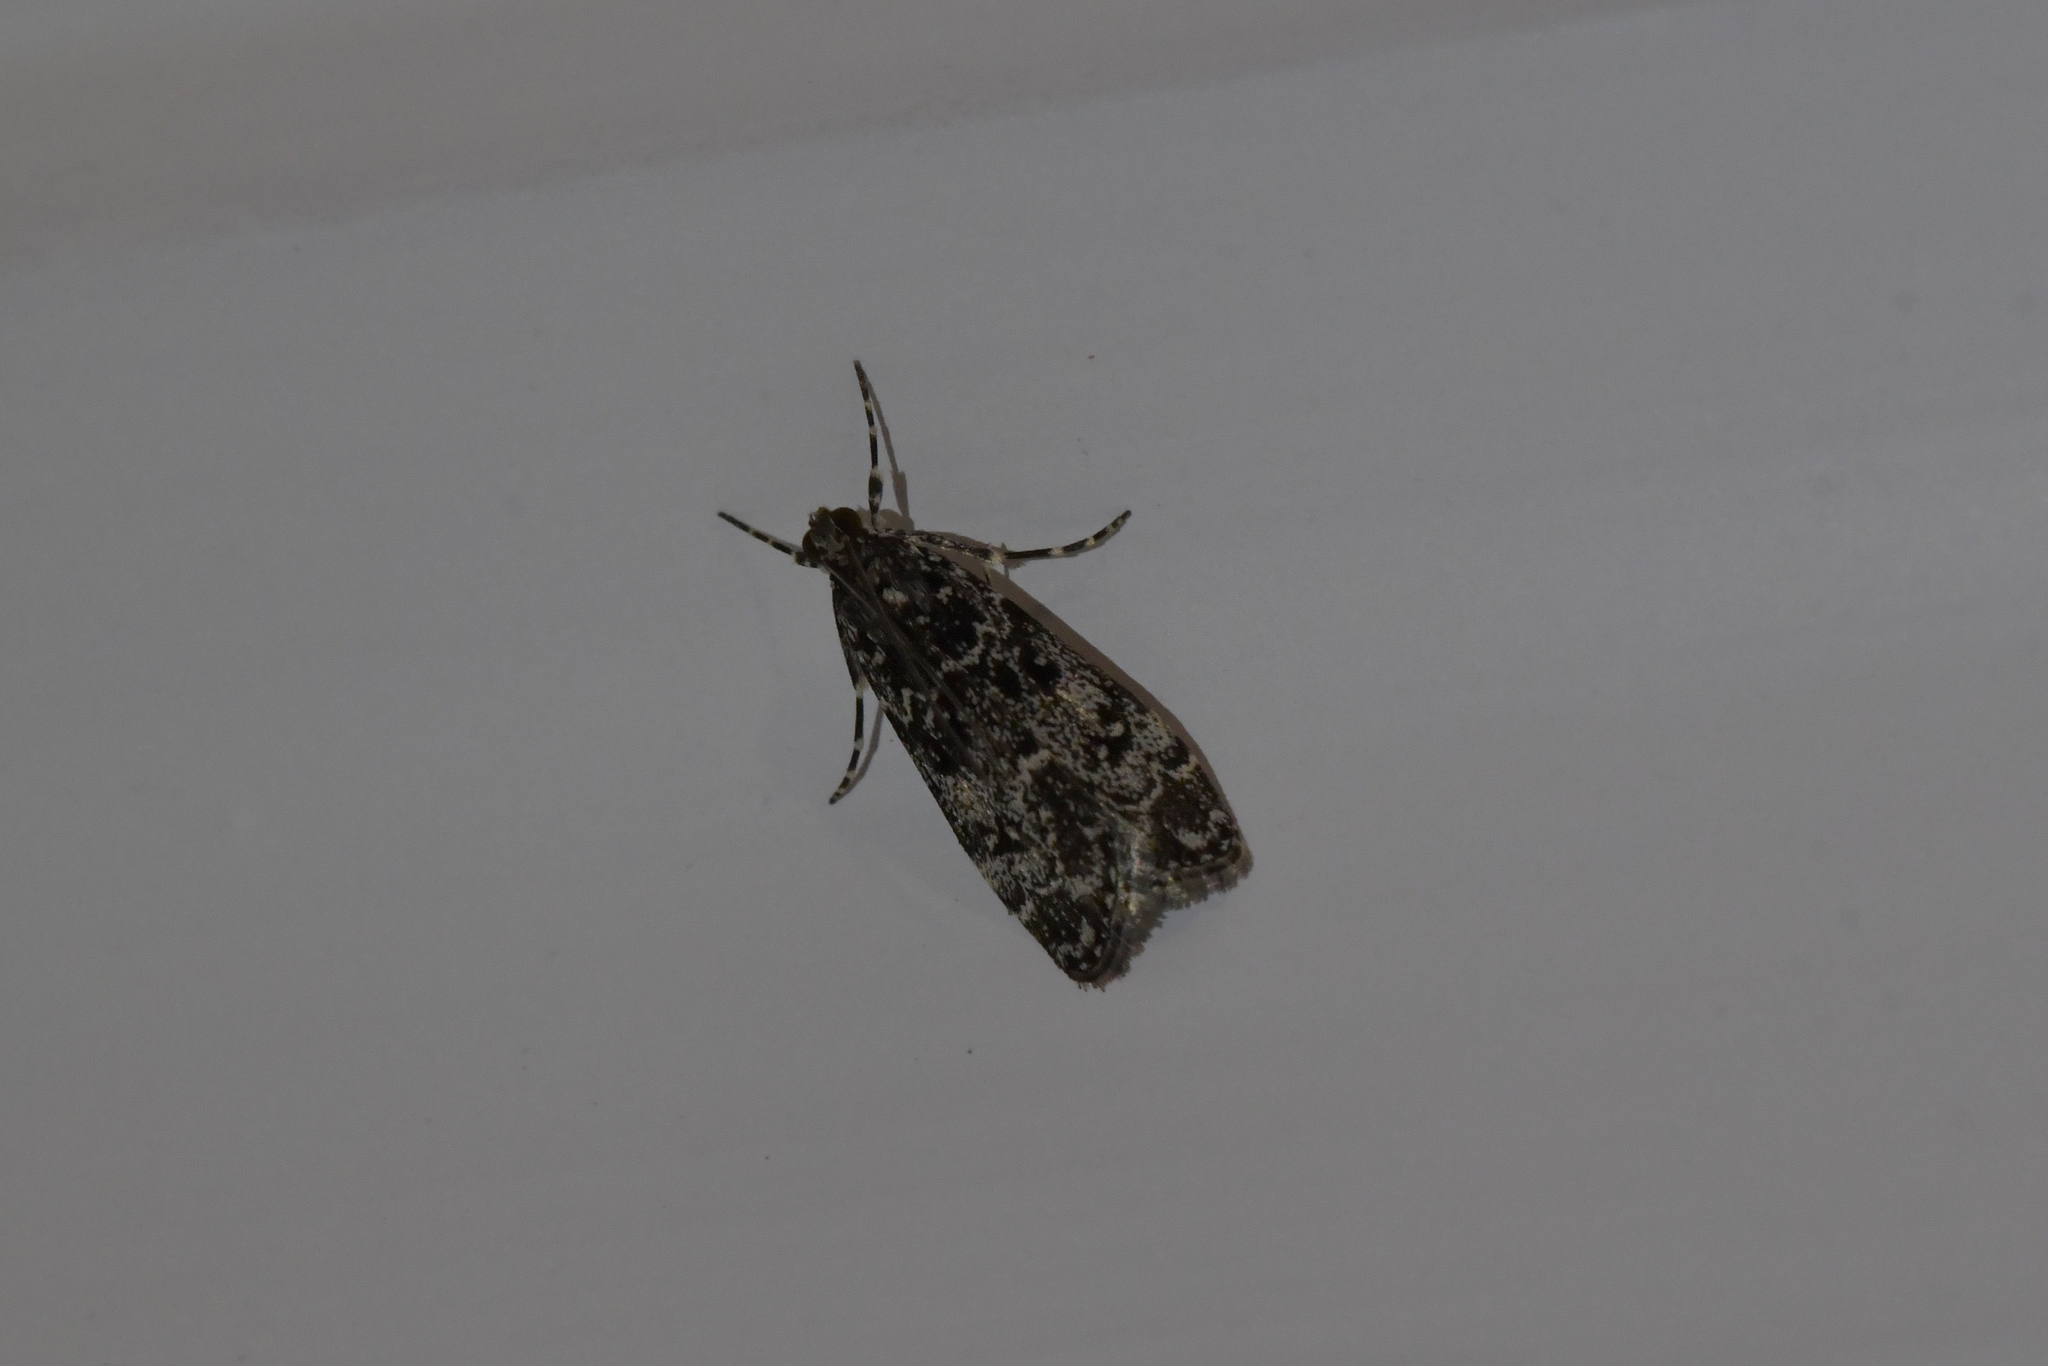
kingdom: Animalia
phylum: Arthropoda
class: Insecta
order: Lepidoptera
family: Crambidae
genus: Eudonia
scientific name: Eudonia philerga
